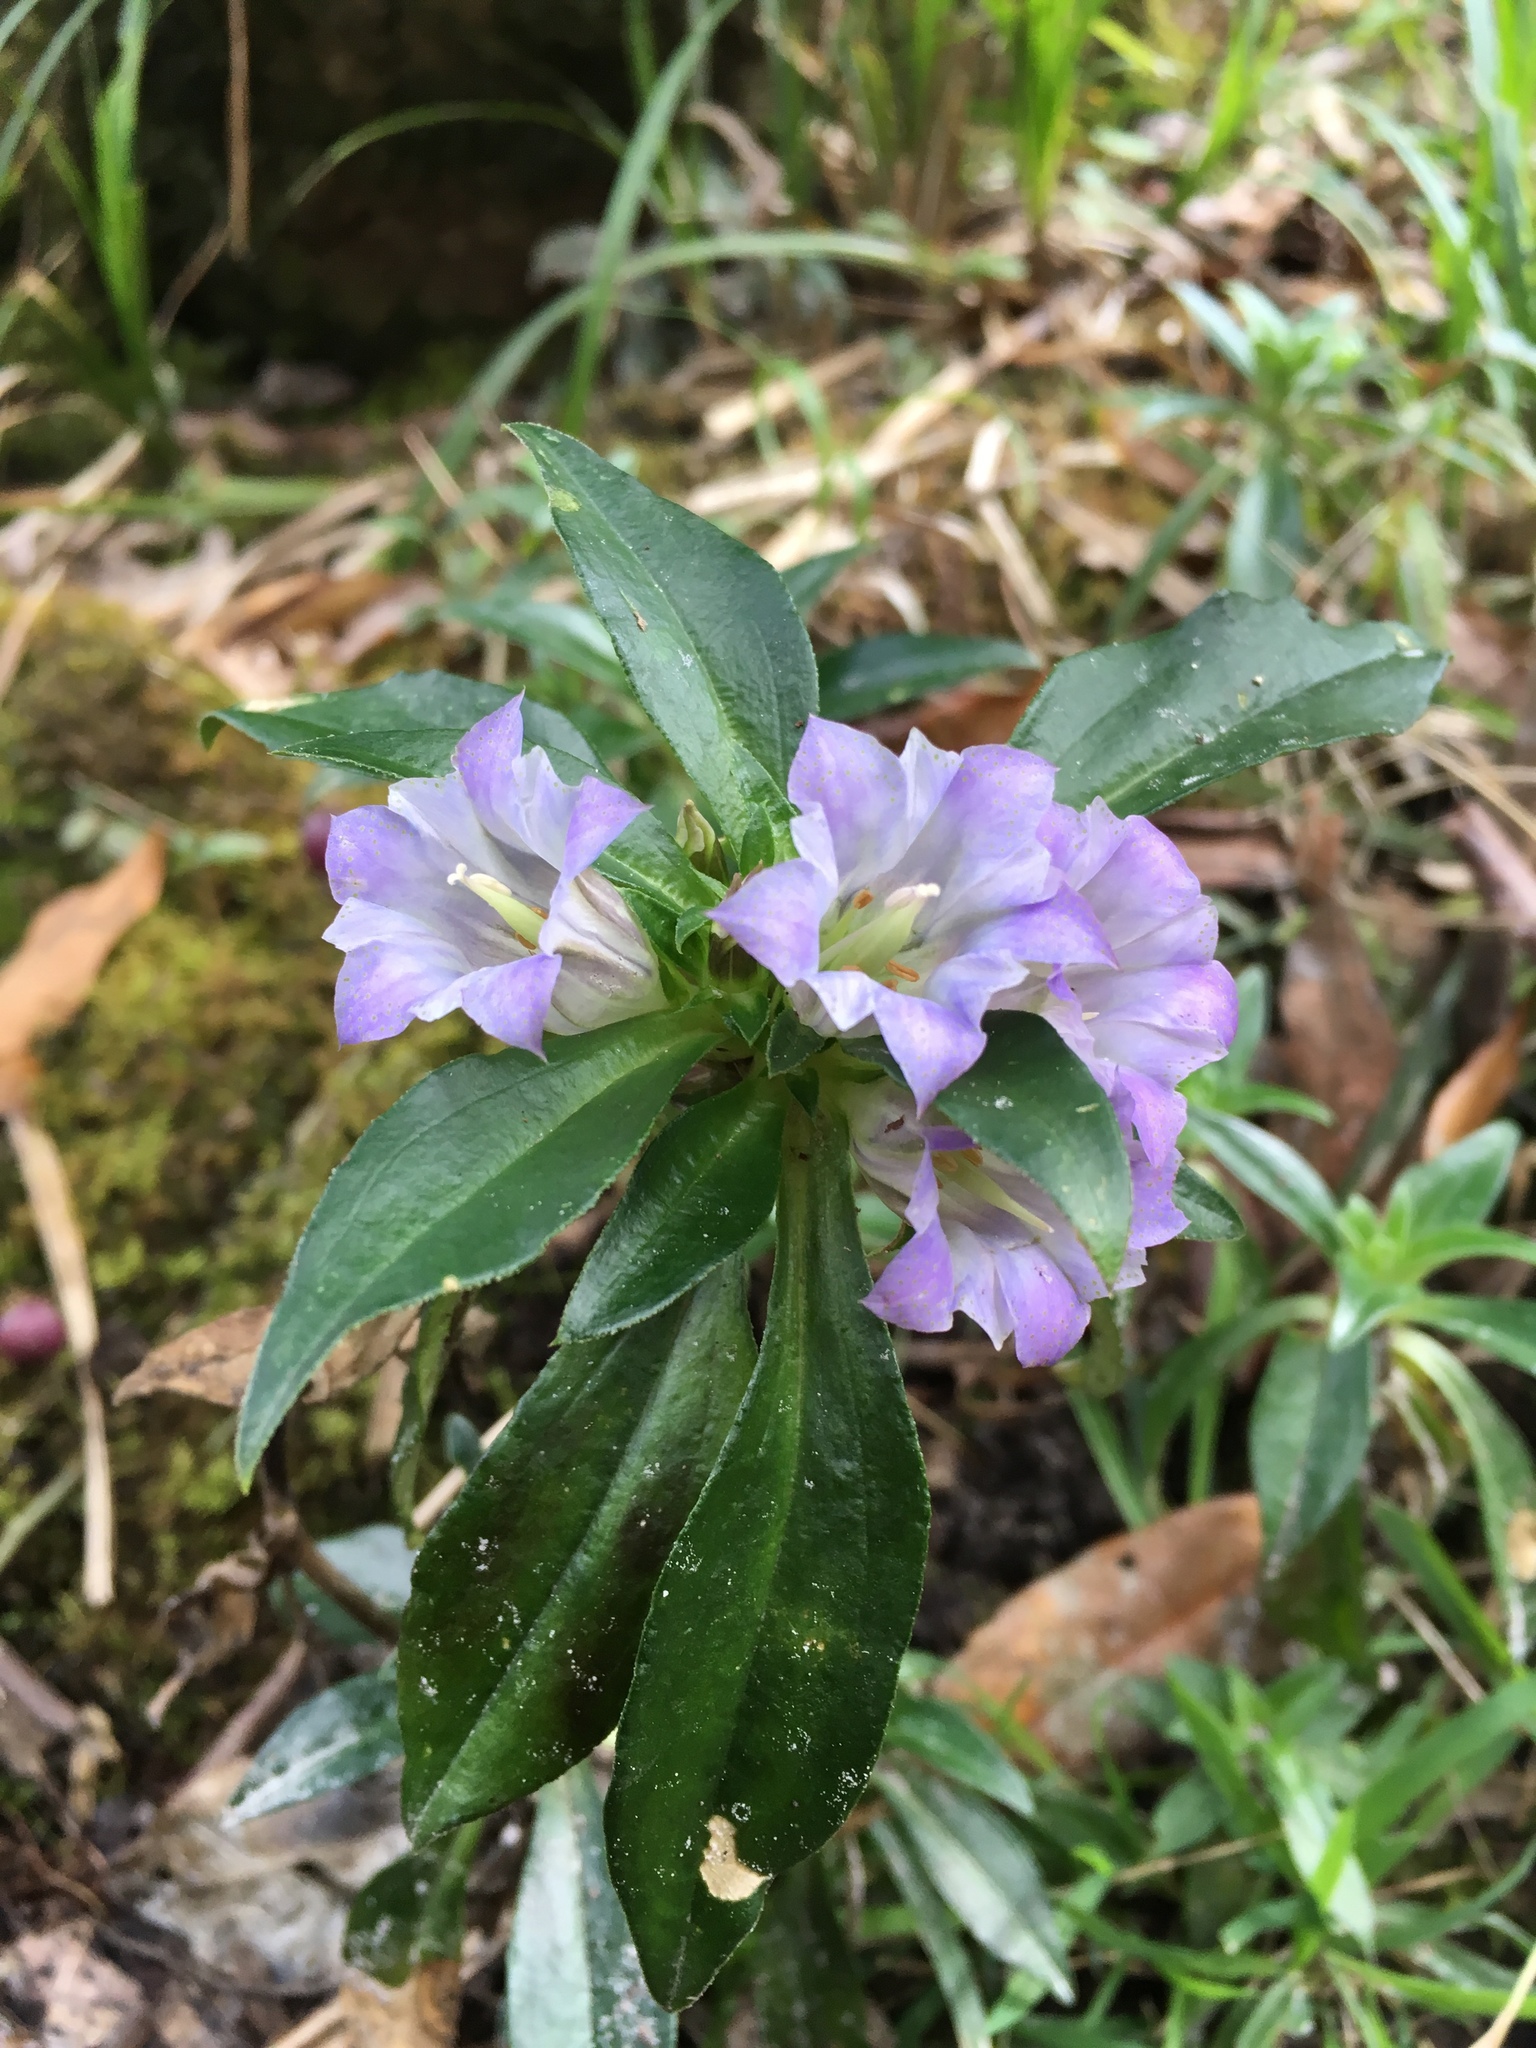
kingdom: Plantae
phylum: Tracheophyta
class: Magnoliopsida
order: Gentianales
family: Gentianaceae
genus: Gentiana
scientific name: Gentiana cephalantha
